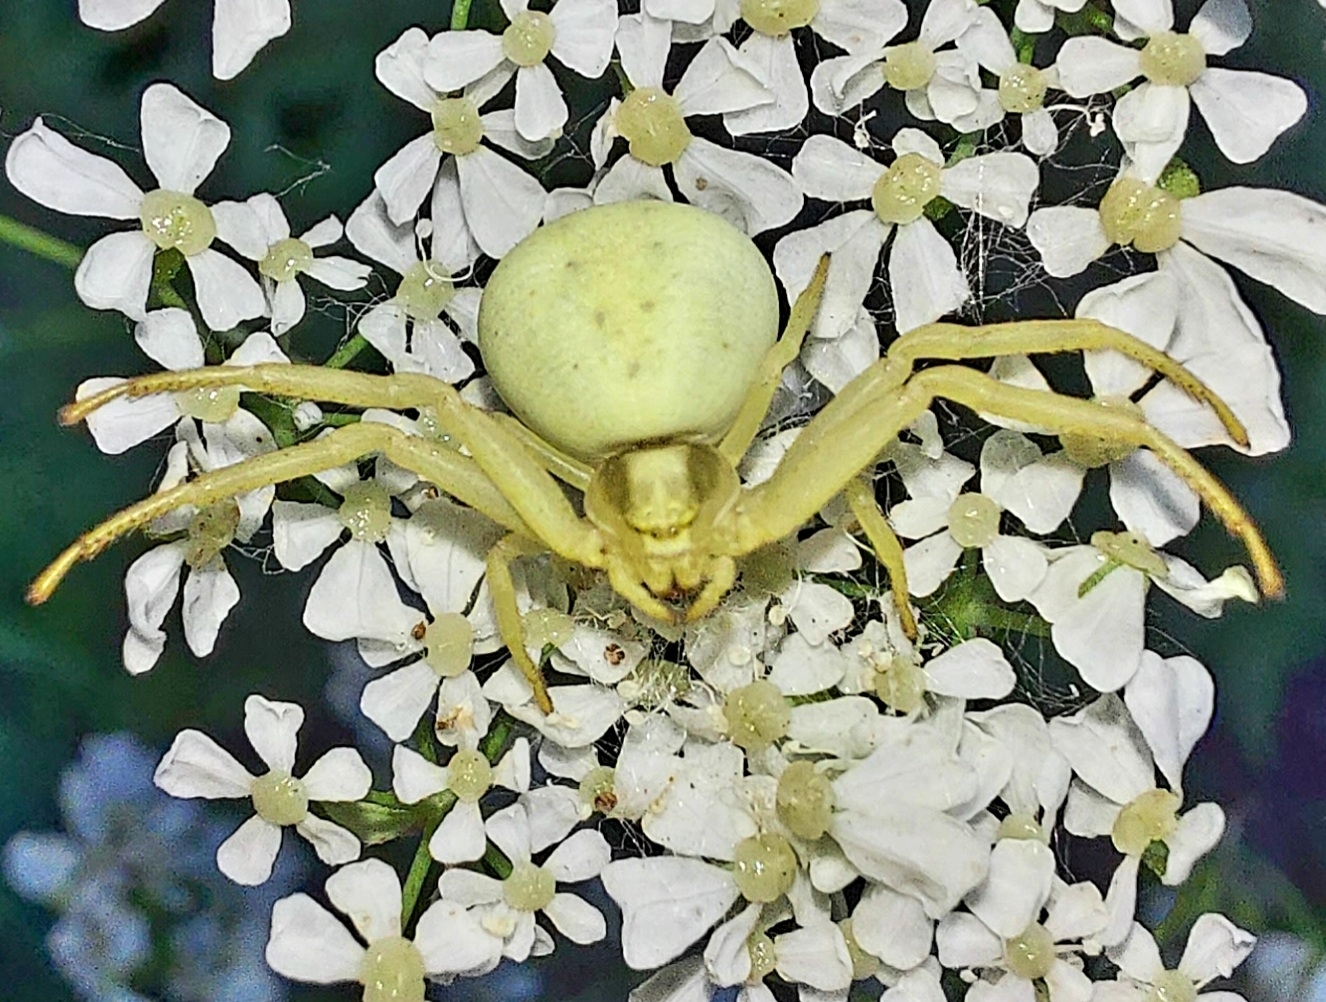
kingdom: Animalia
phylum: Arthropoda
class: Arachnida
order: Araneae
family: Thomisidae
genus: Misumena
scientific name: Misumena vatia
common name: Goldenrod crab spider
